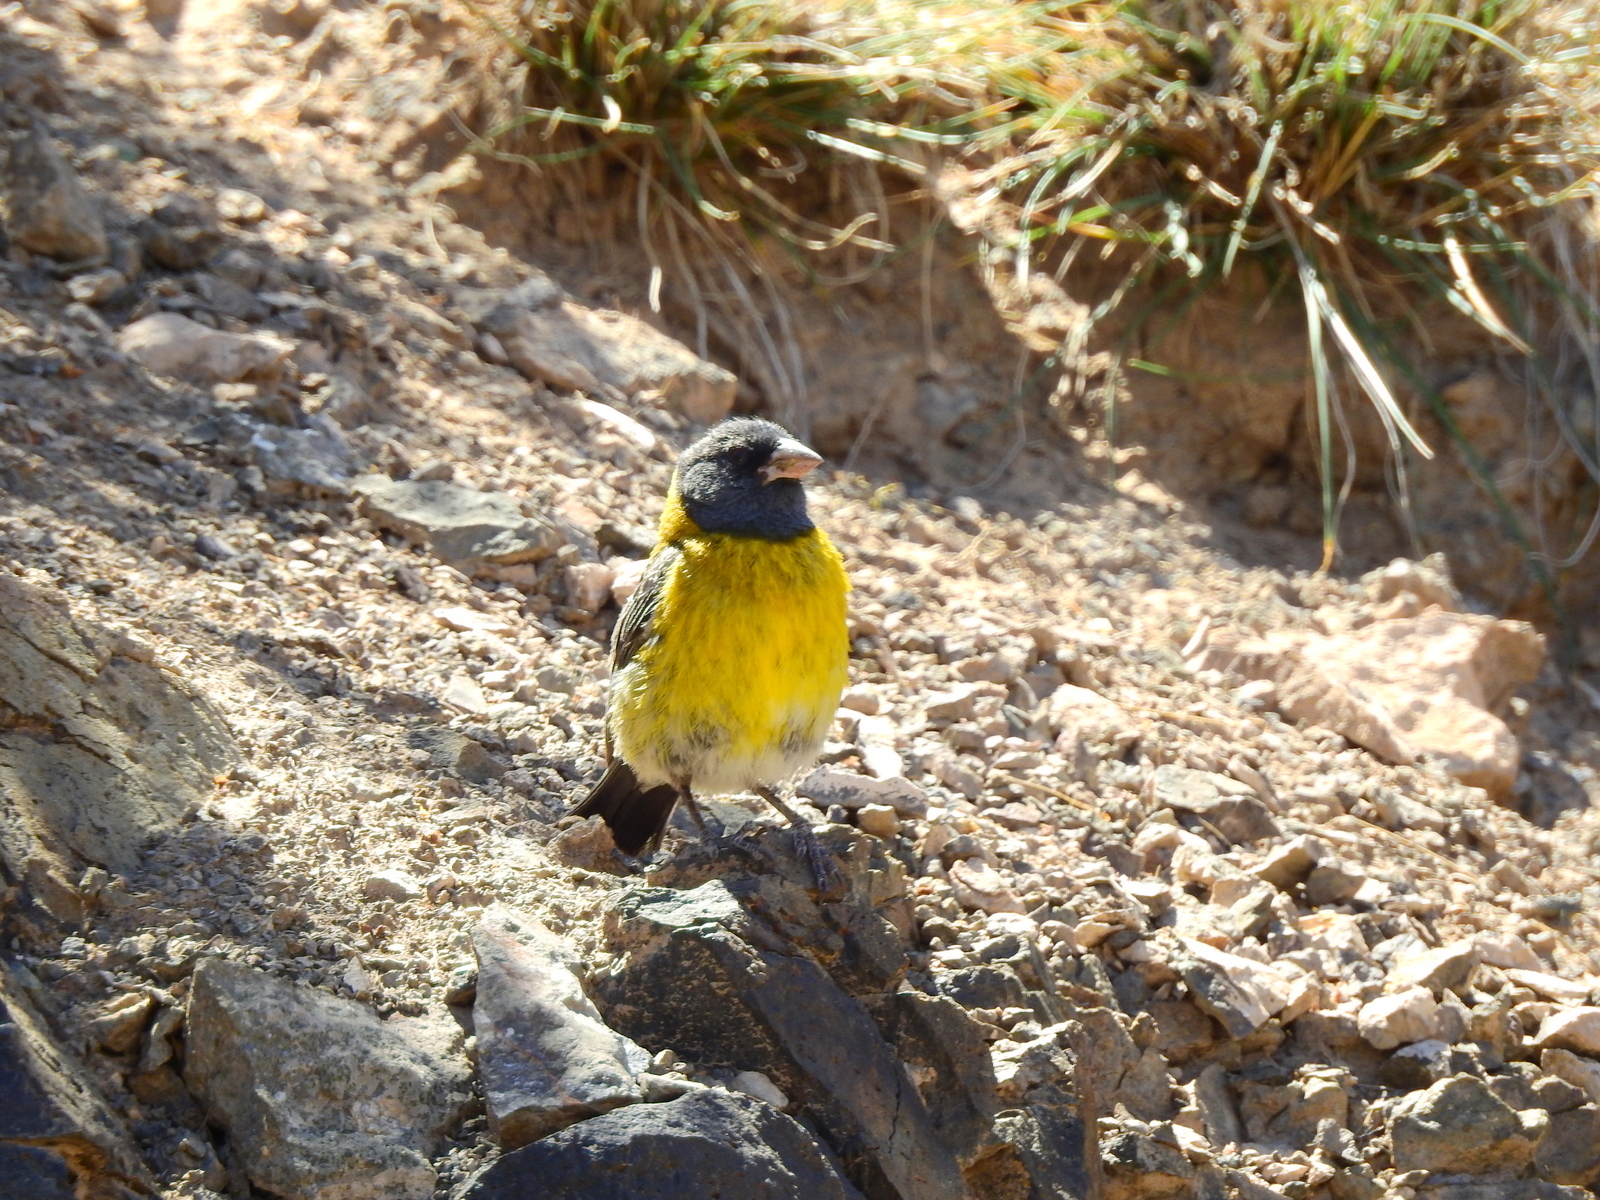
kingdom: Animalia
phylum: Chordata
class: Aves
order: Passeriformes
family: Thraupidae
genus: Phrygilus
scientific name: Phrygilus gayi
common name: Grey-hooded sierra finch
